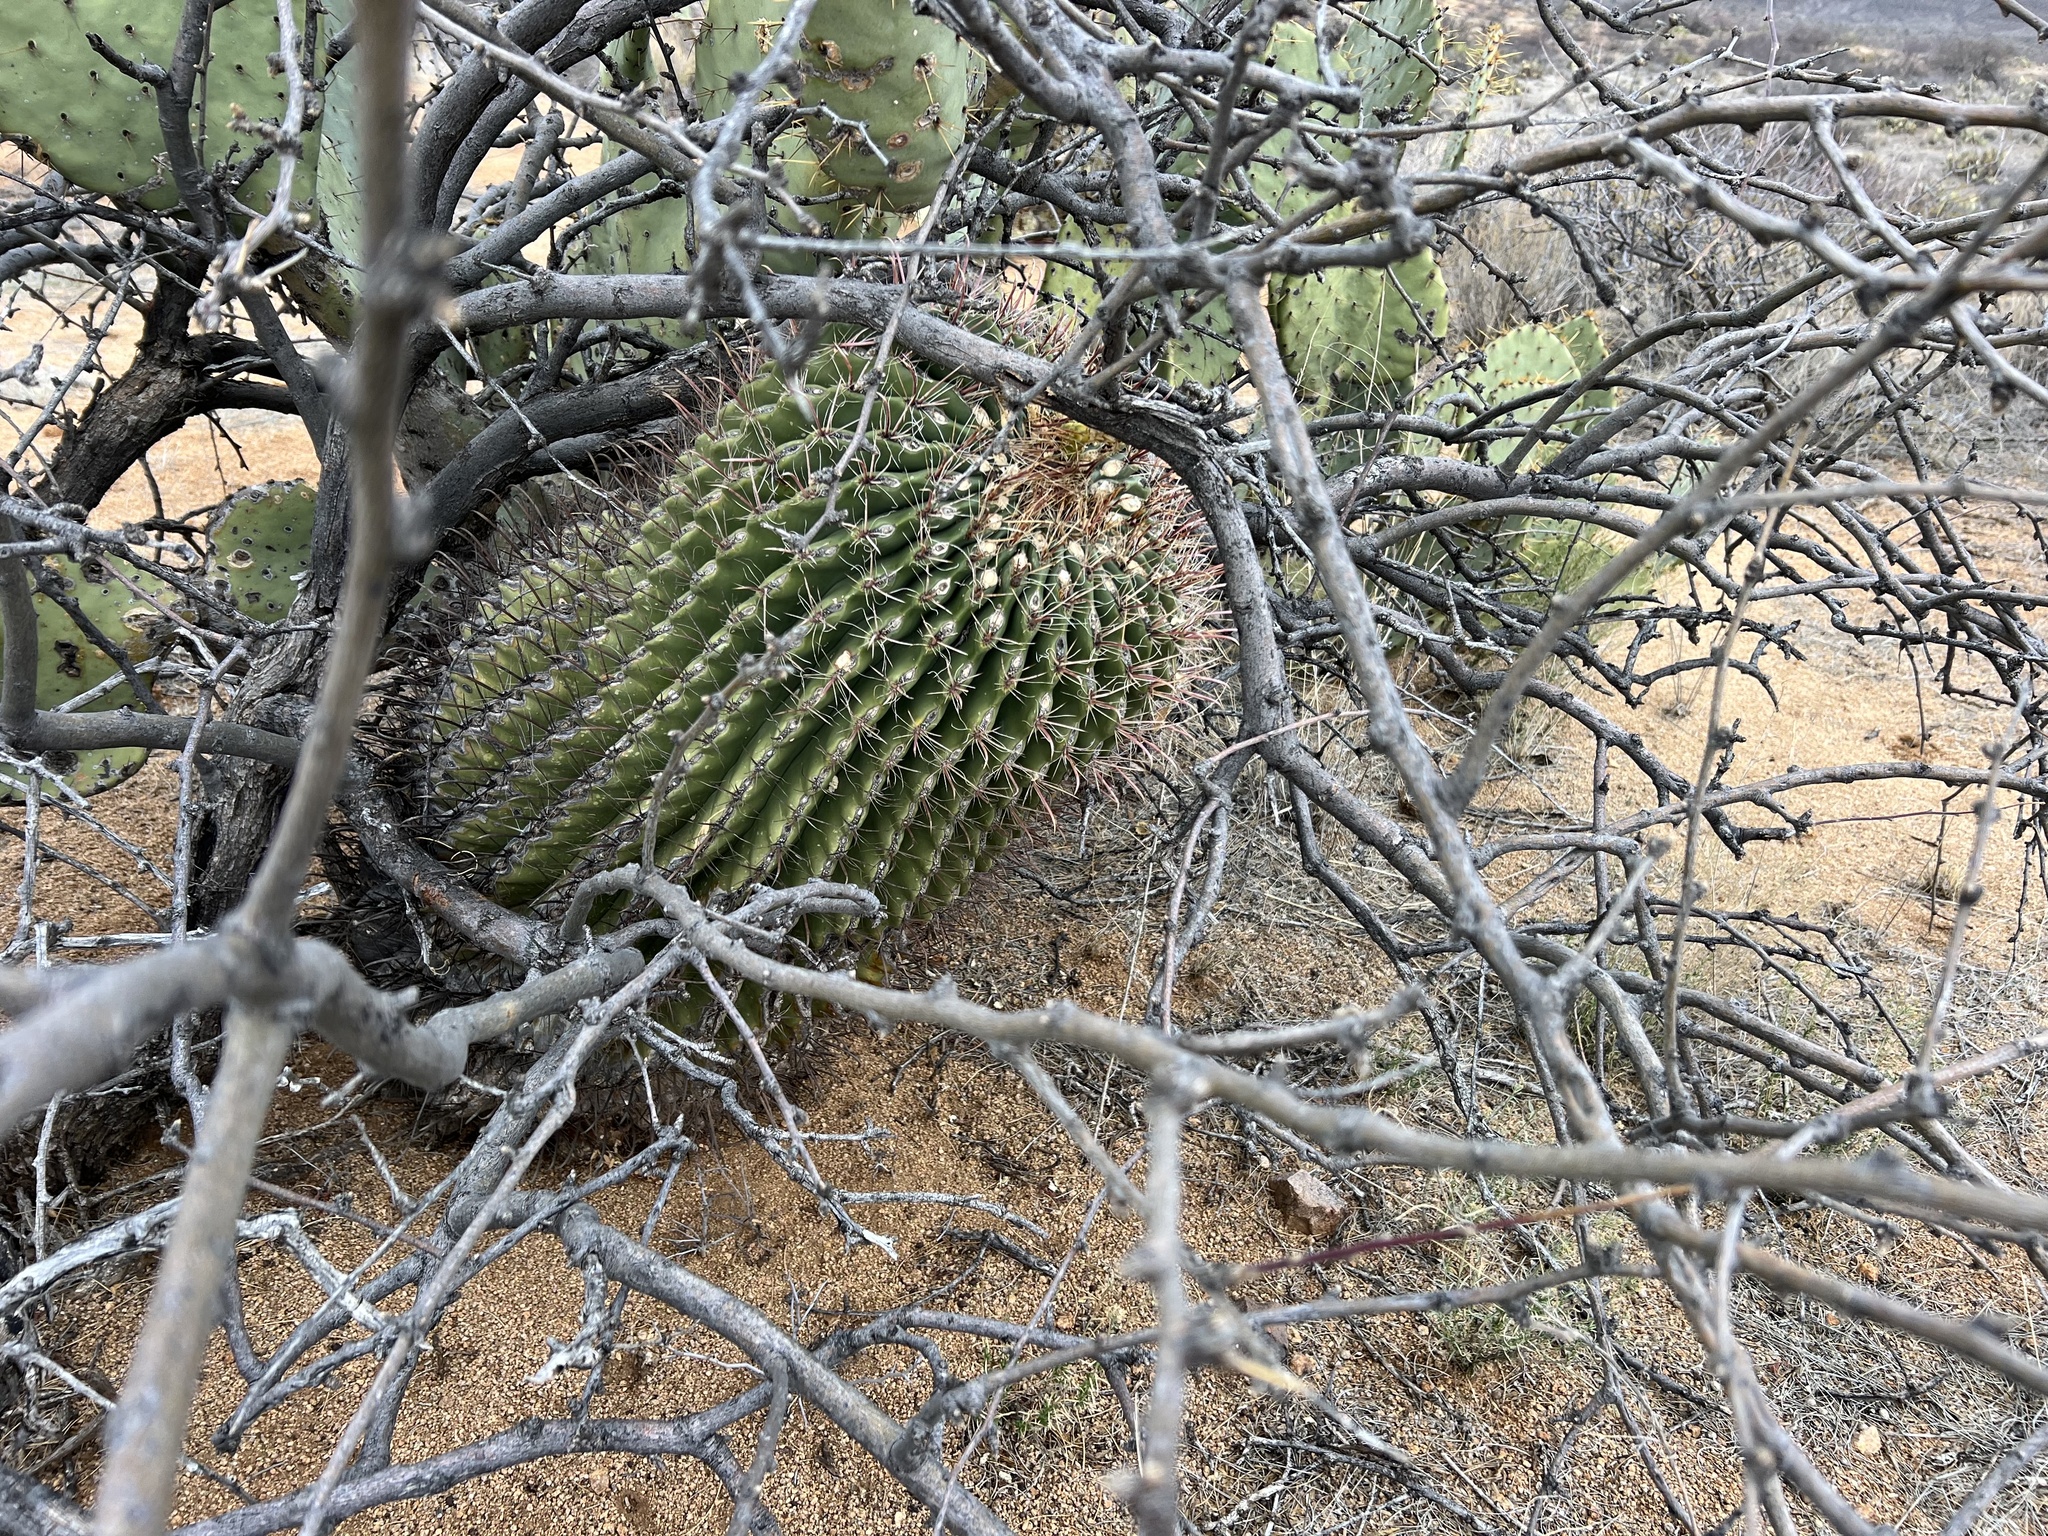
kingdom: Plantae
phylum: Tracheophyta
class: Magnoliopsida
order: Caryophyllales
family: Cactaceae
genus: Ferocactus
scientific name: Ferocactus wislizeni
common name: Candy barrel cactus
